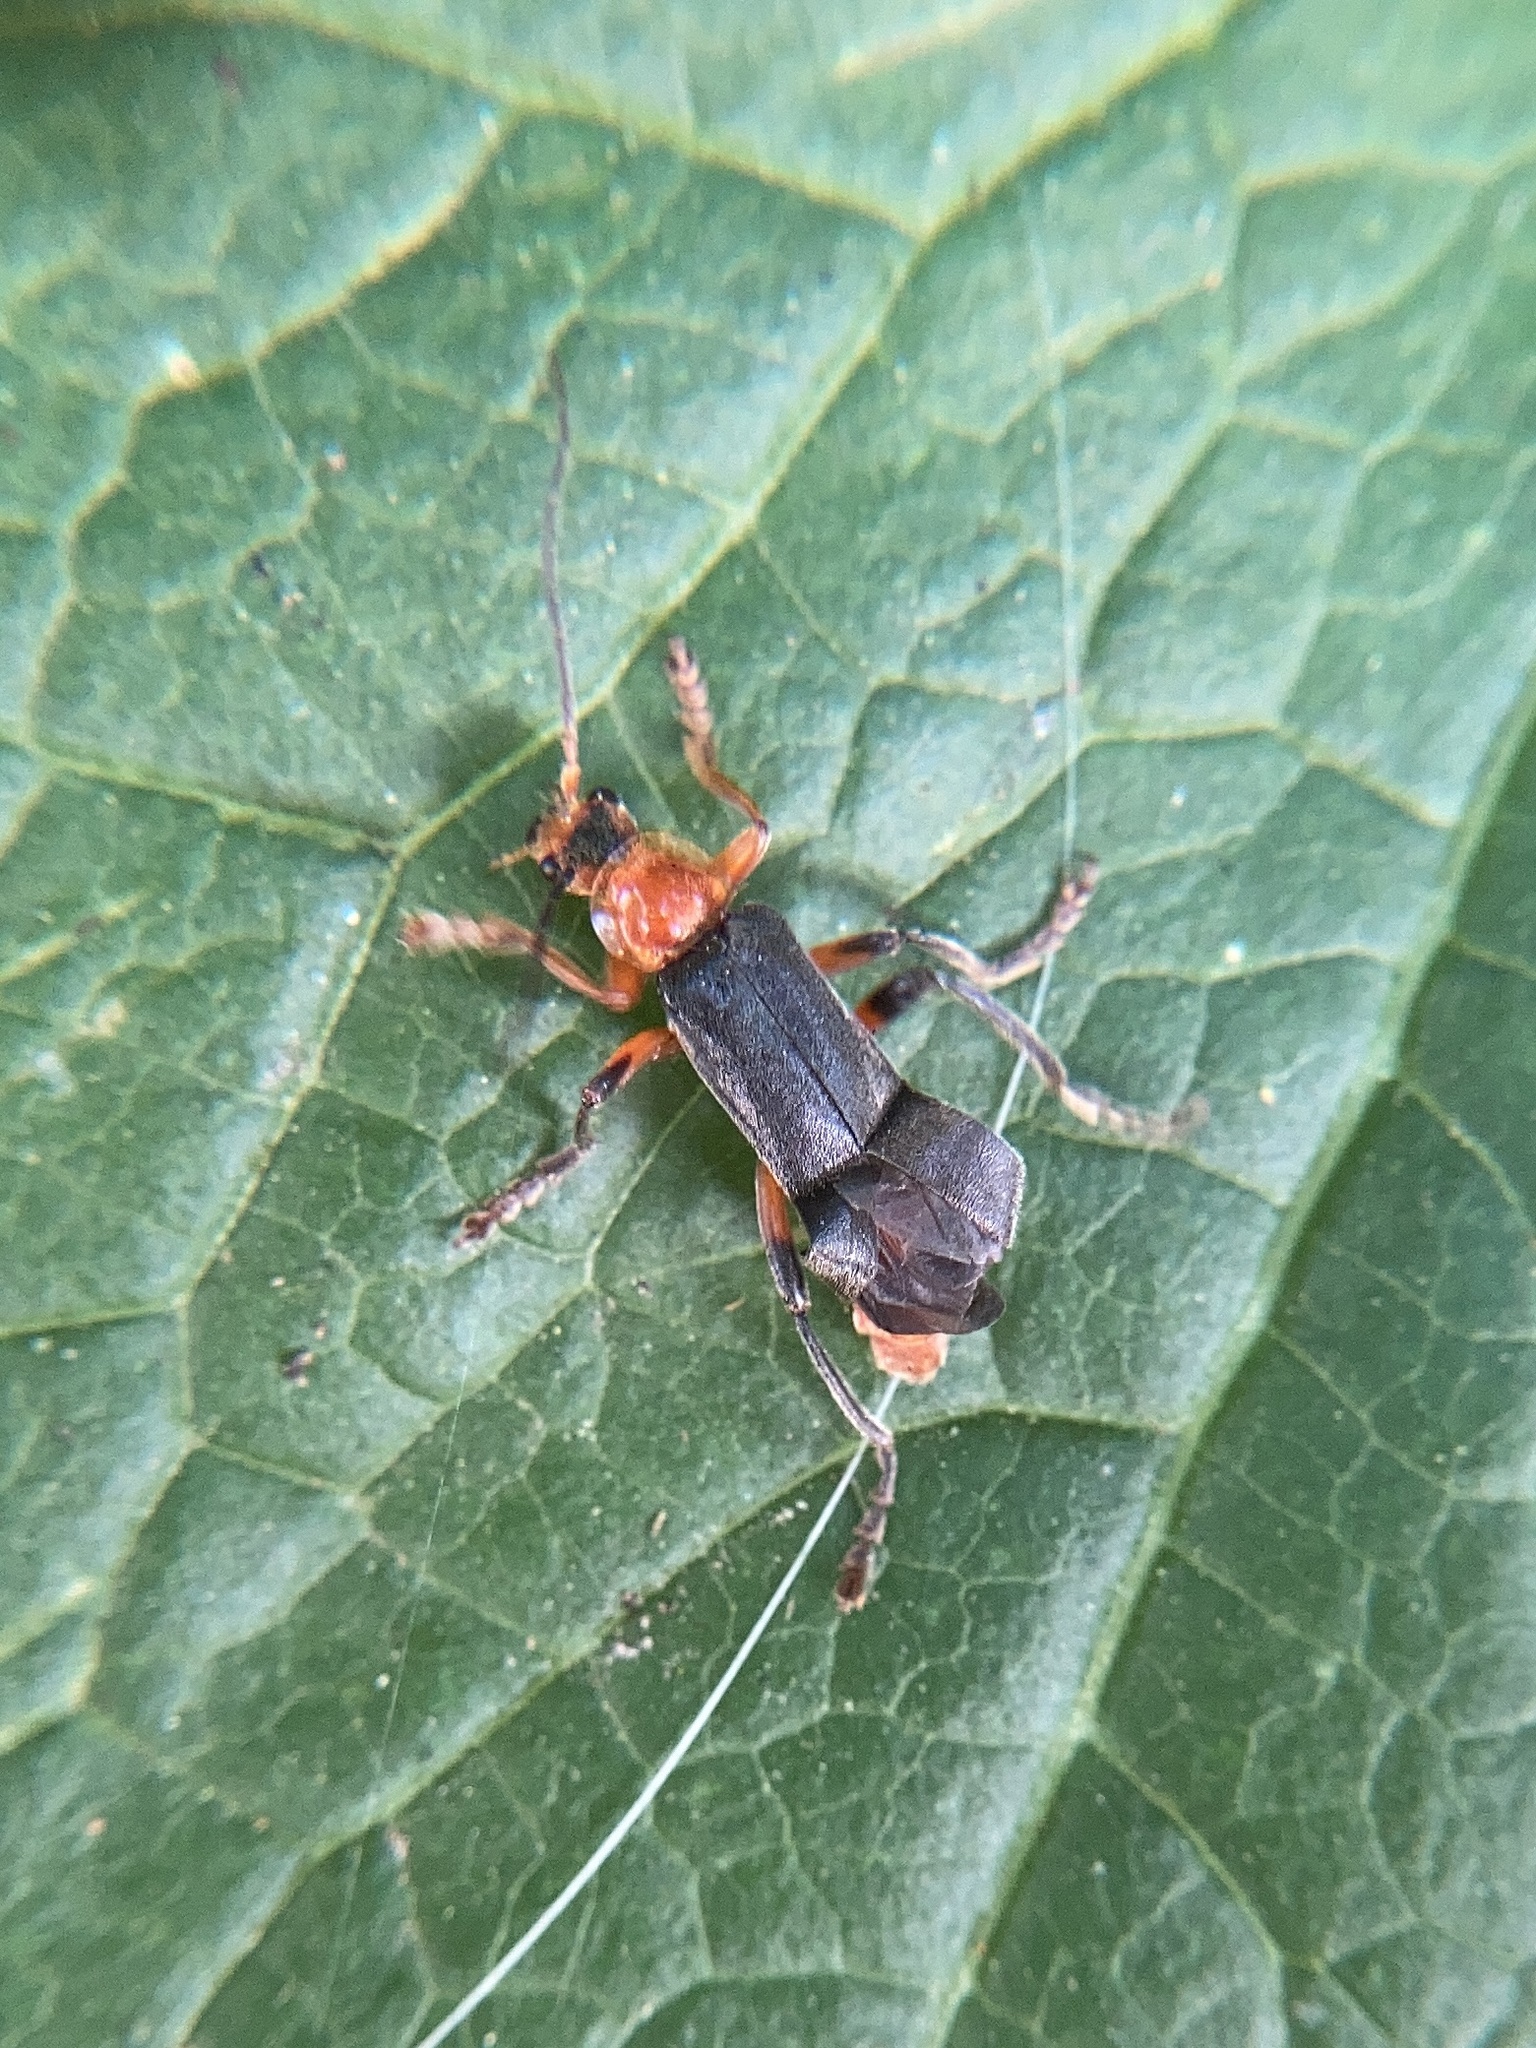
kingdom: Animalia
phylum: Arthropoda
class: Insecta
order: Coleoptera
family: Cantharidae
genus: Cantharis
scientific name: Cantharis livida
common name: Livid soldier beetle
